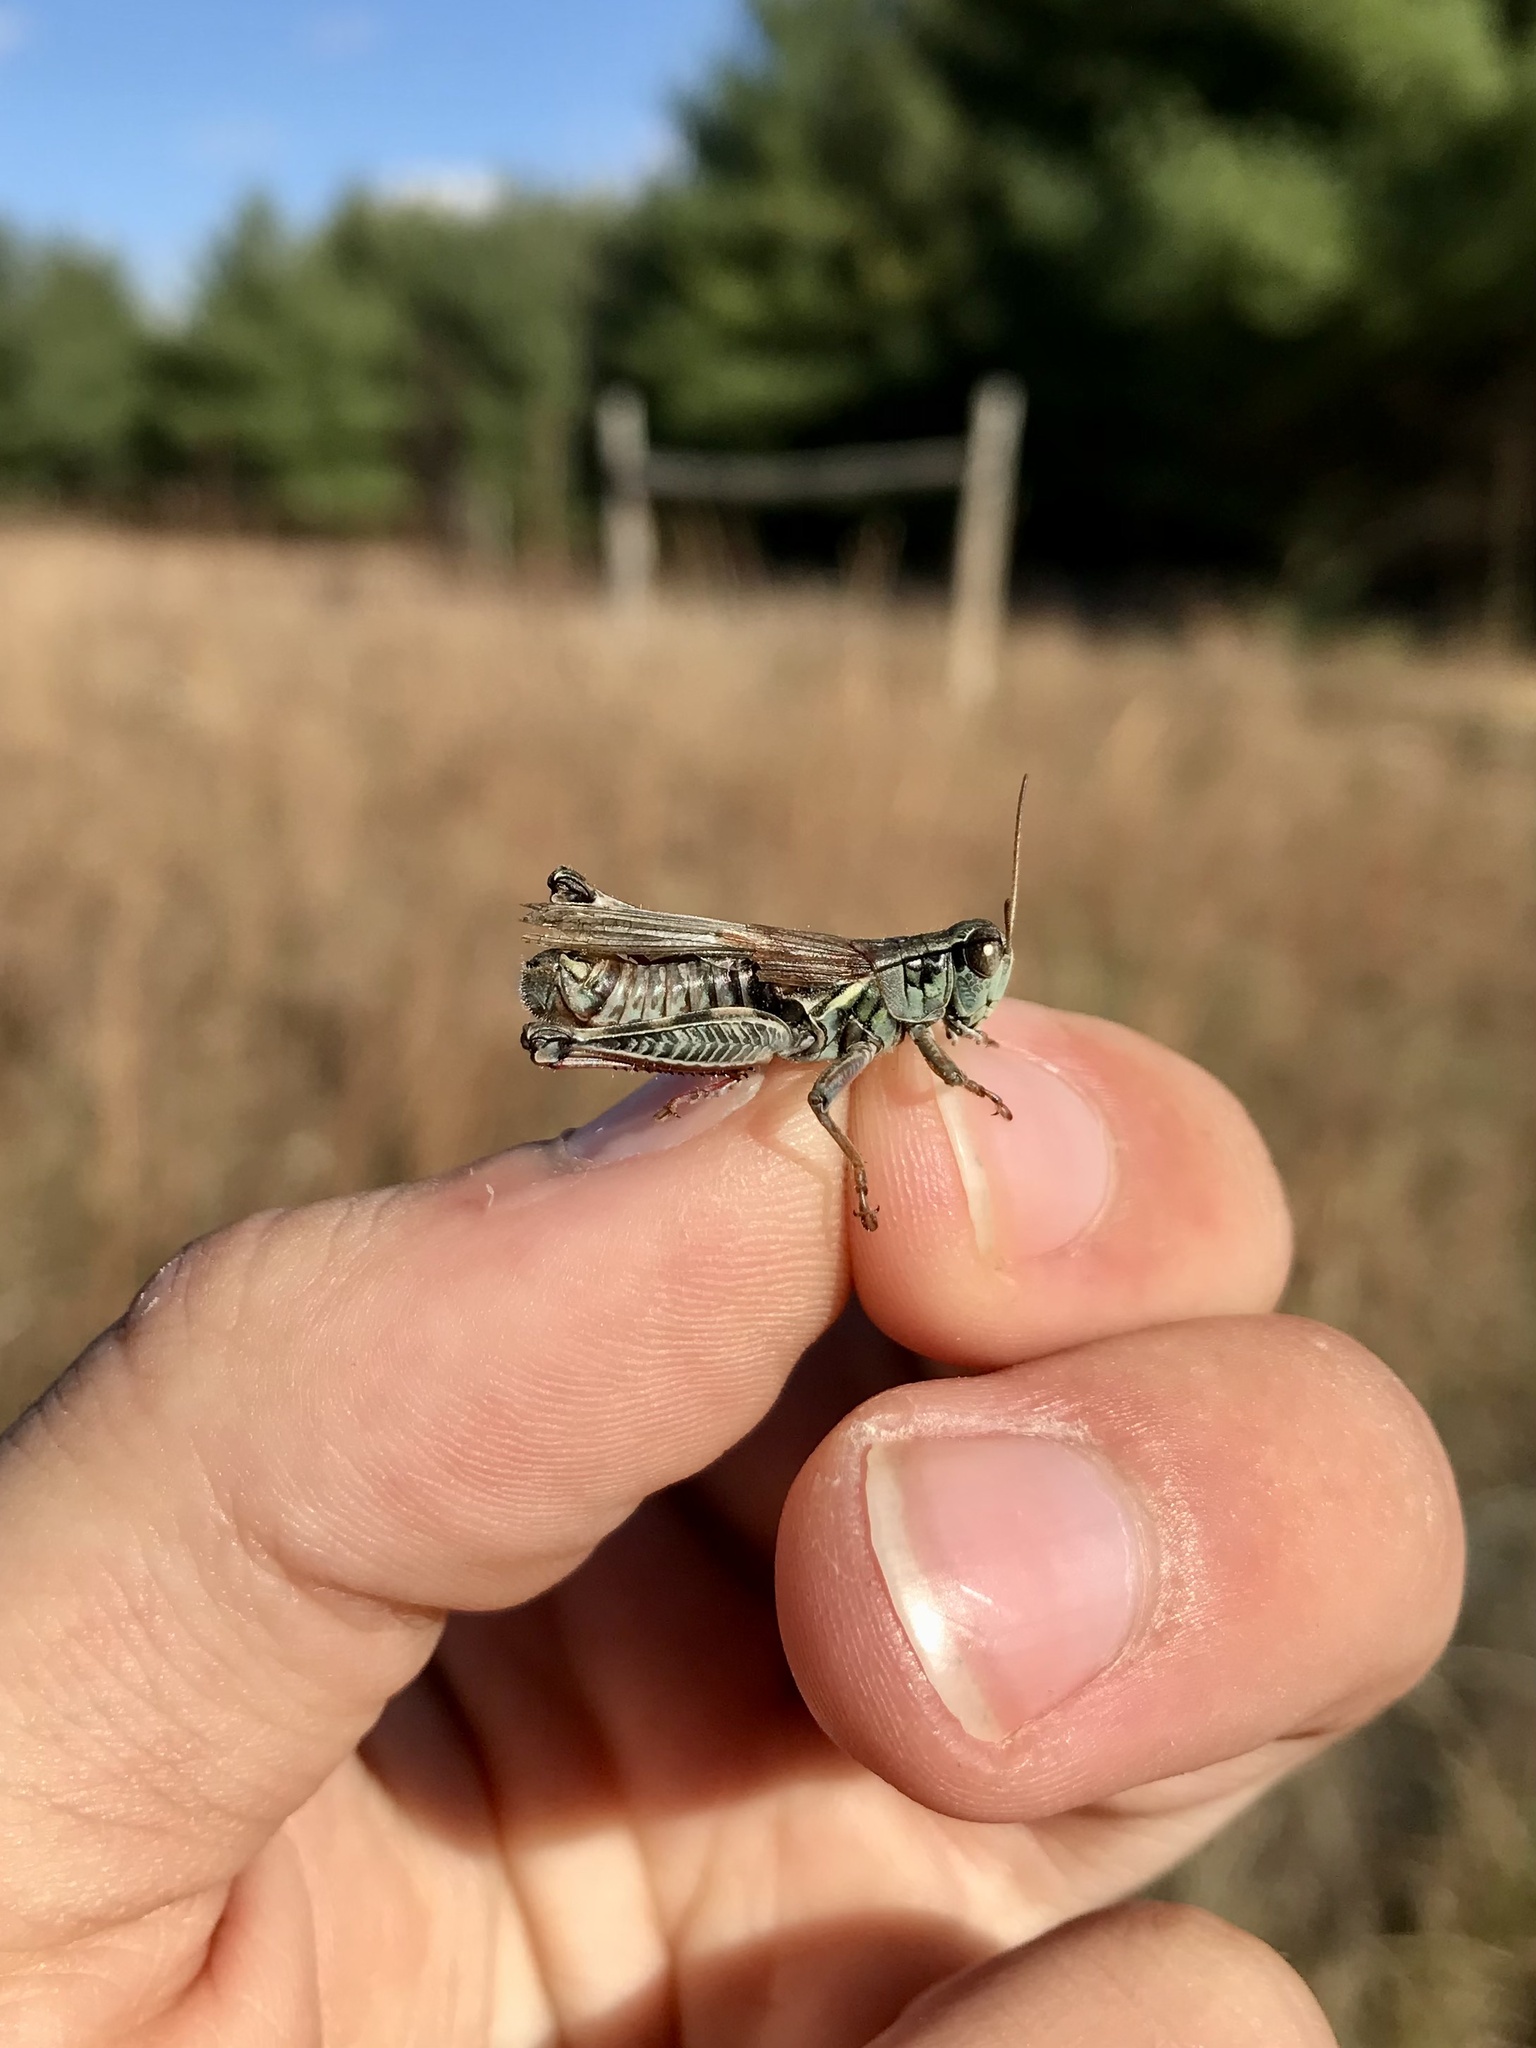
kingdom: Animalia
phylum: Arthropoda
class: Insecta
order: Orthoptera
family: Acrididae
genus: Melanoplus
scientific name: Melanoplus femurrubrum
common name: Red-legged grasshopper
